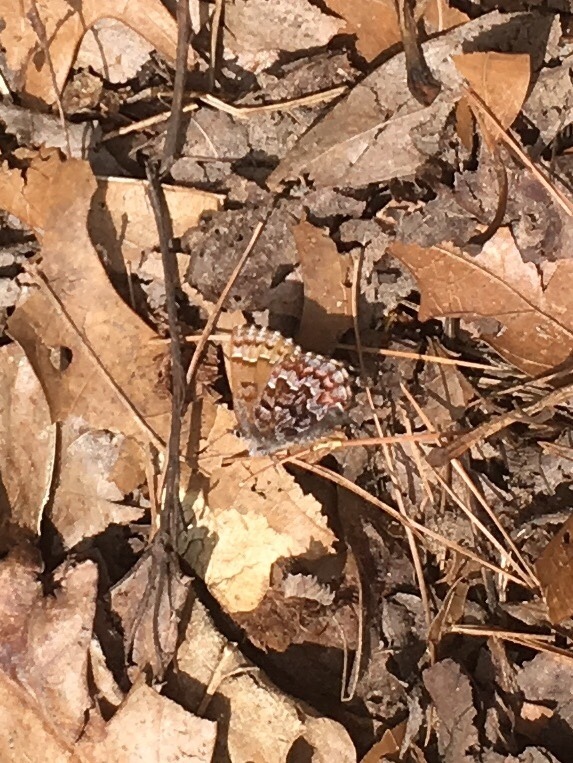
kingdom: Animalia
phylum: Arthropoda
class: Insecta
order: Lepidoptera
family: Lycaenidae
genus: Incisalia
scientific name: Incisalia niphon
